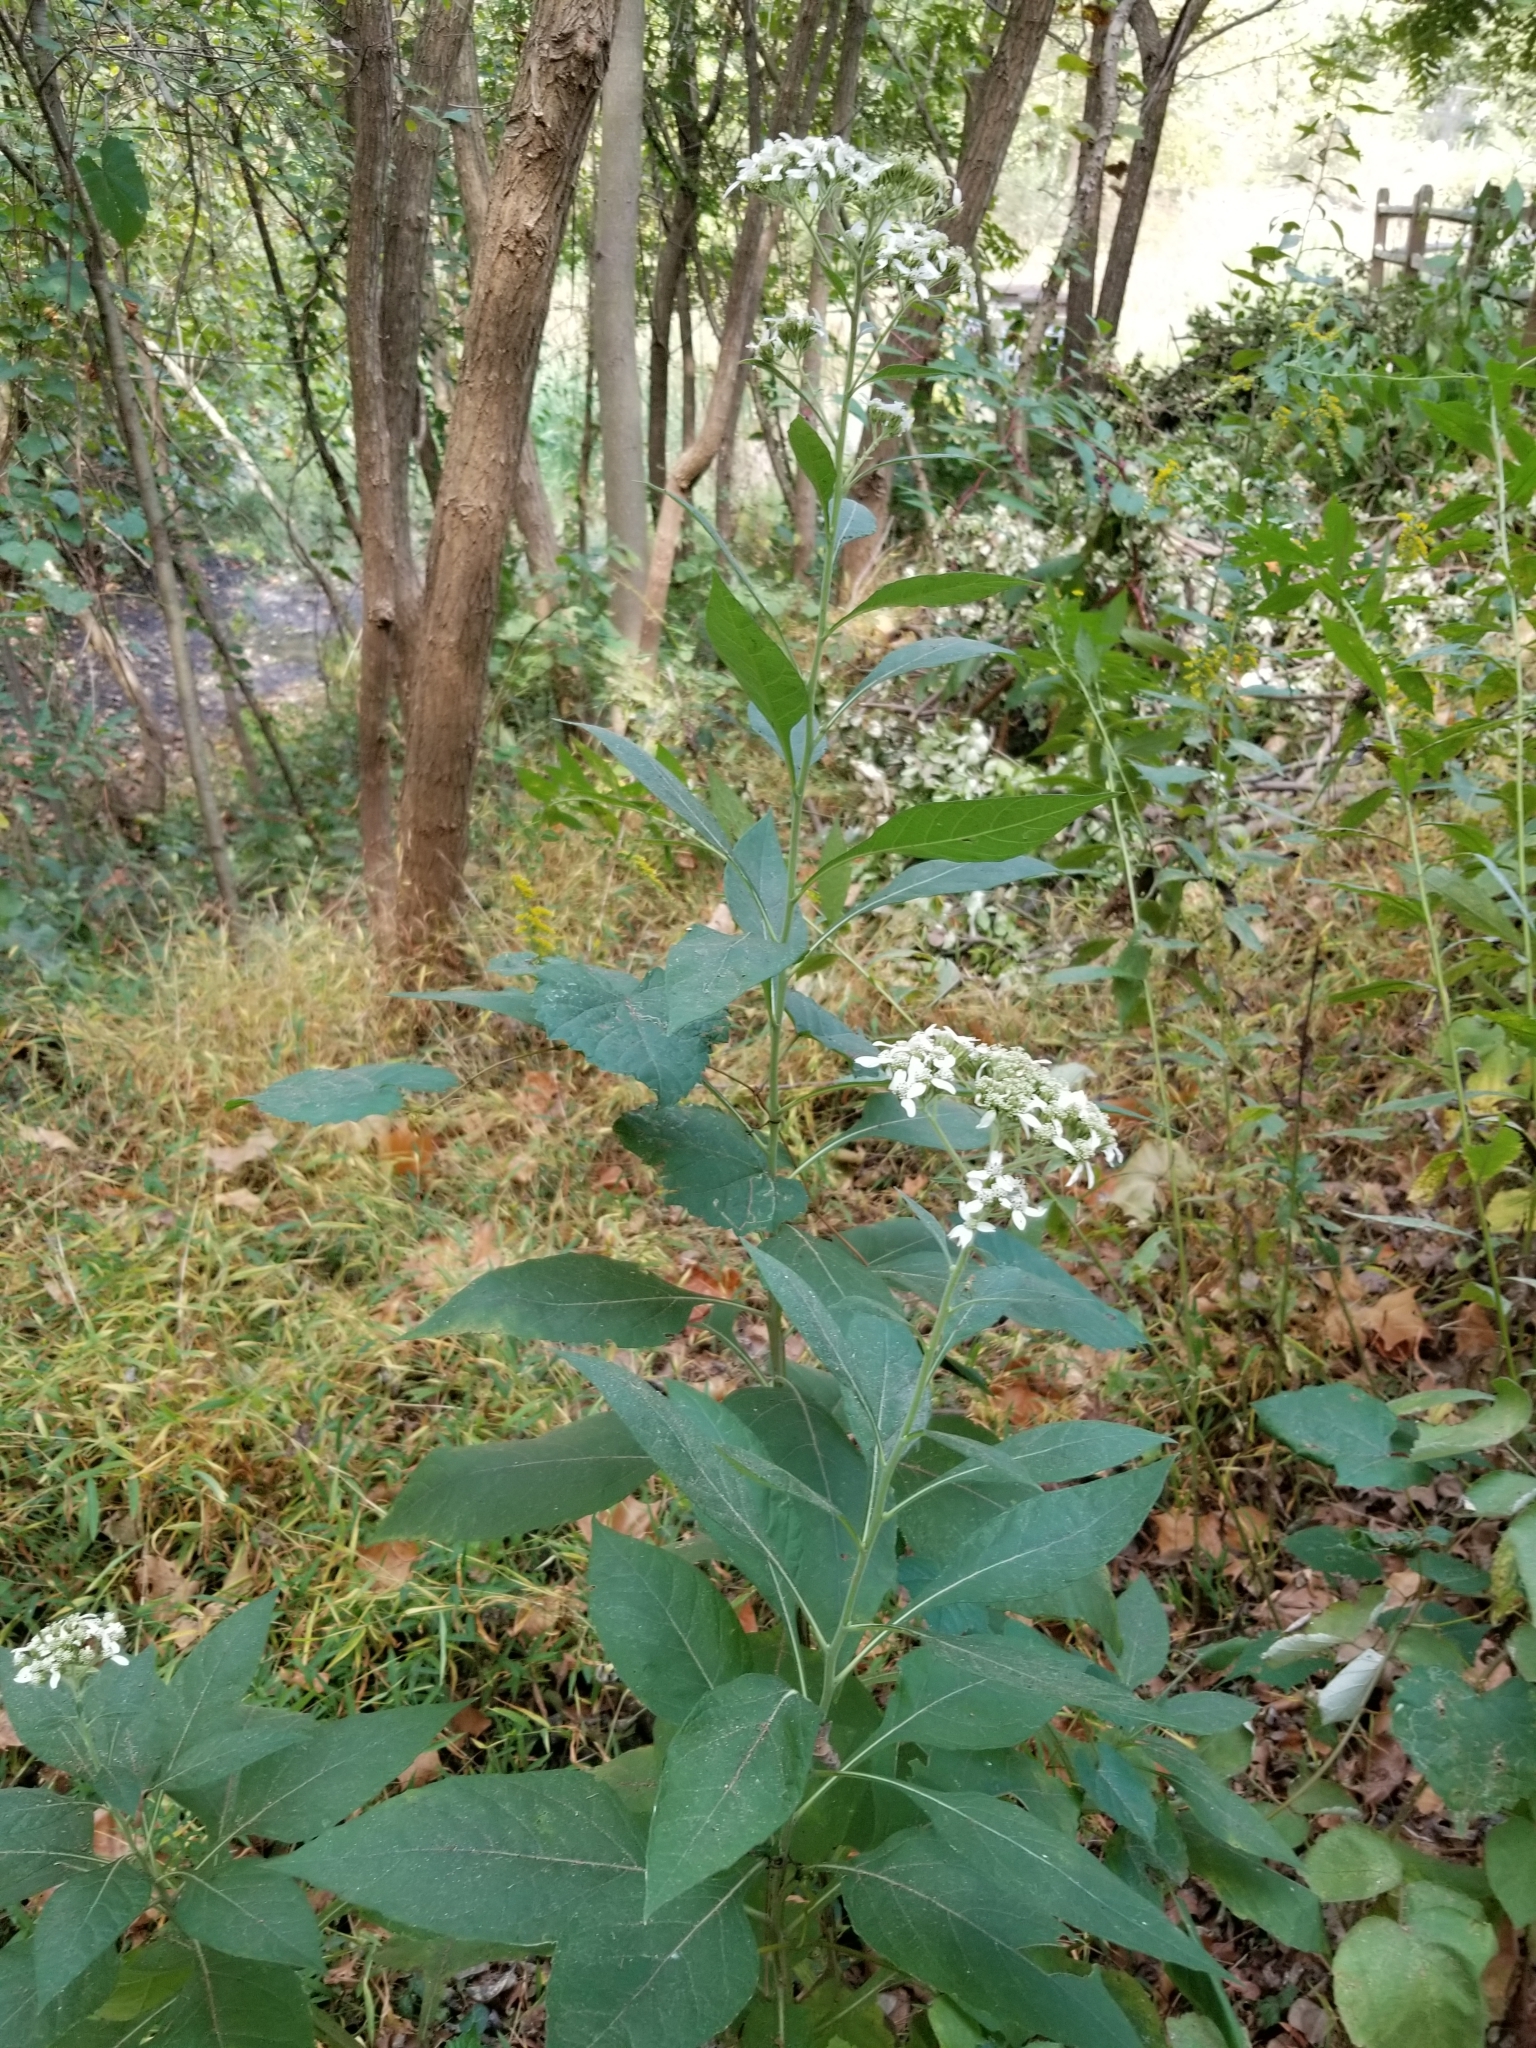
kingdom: Plantae
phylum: Tracheophyta
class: Magnoliopsida
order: Asterales
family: Asteraceae
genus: Verbesina
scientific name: Verbesina virginica
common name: Frostweed
